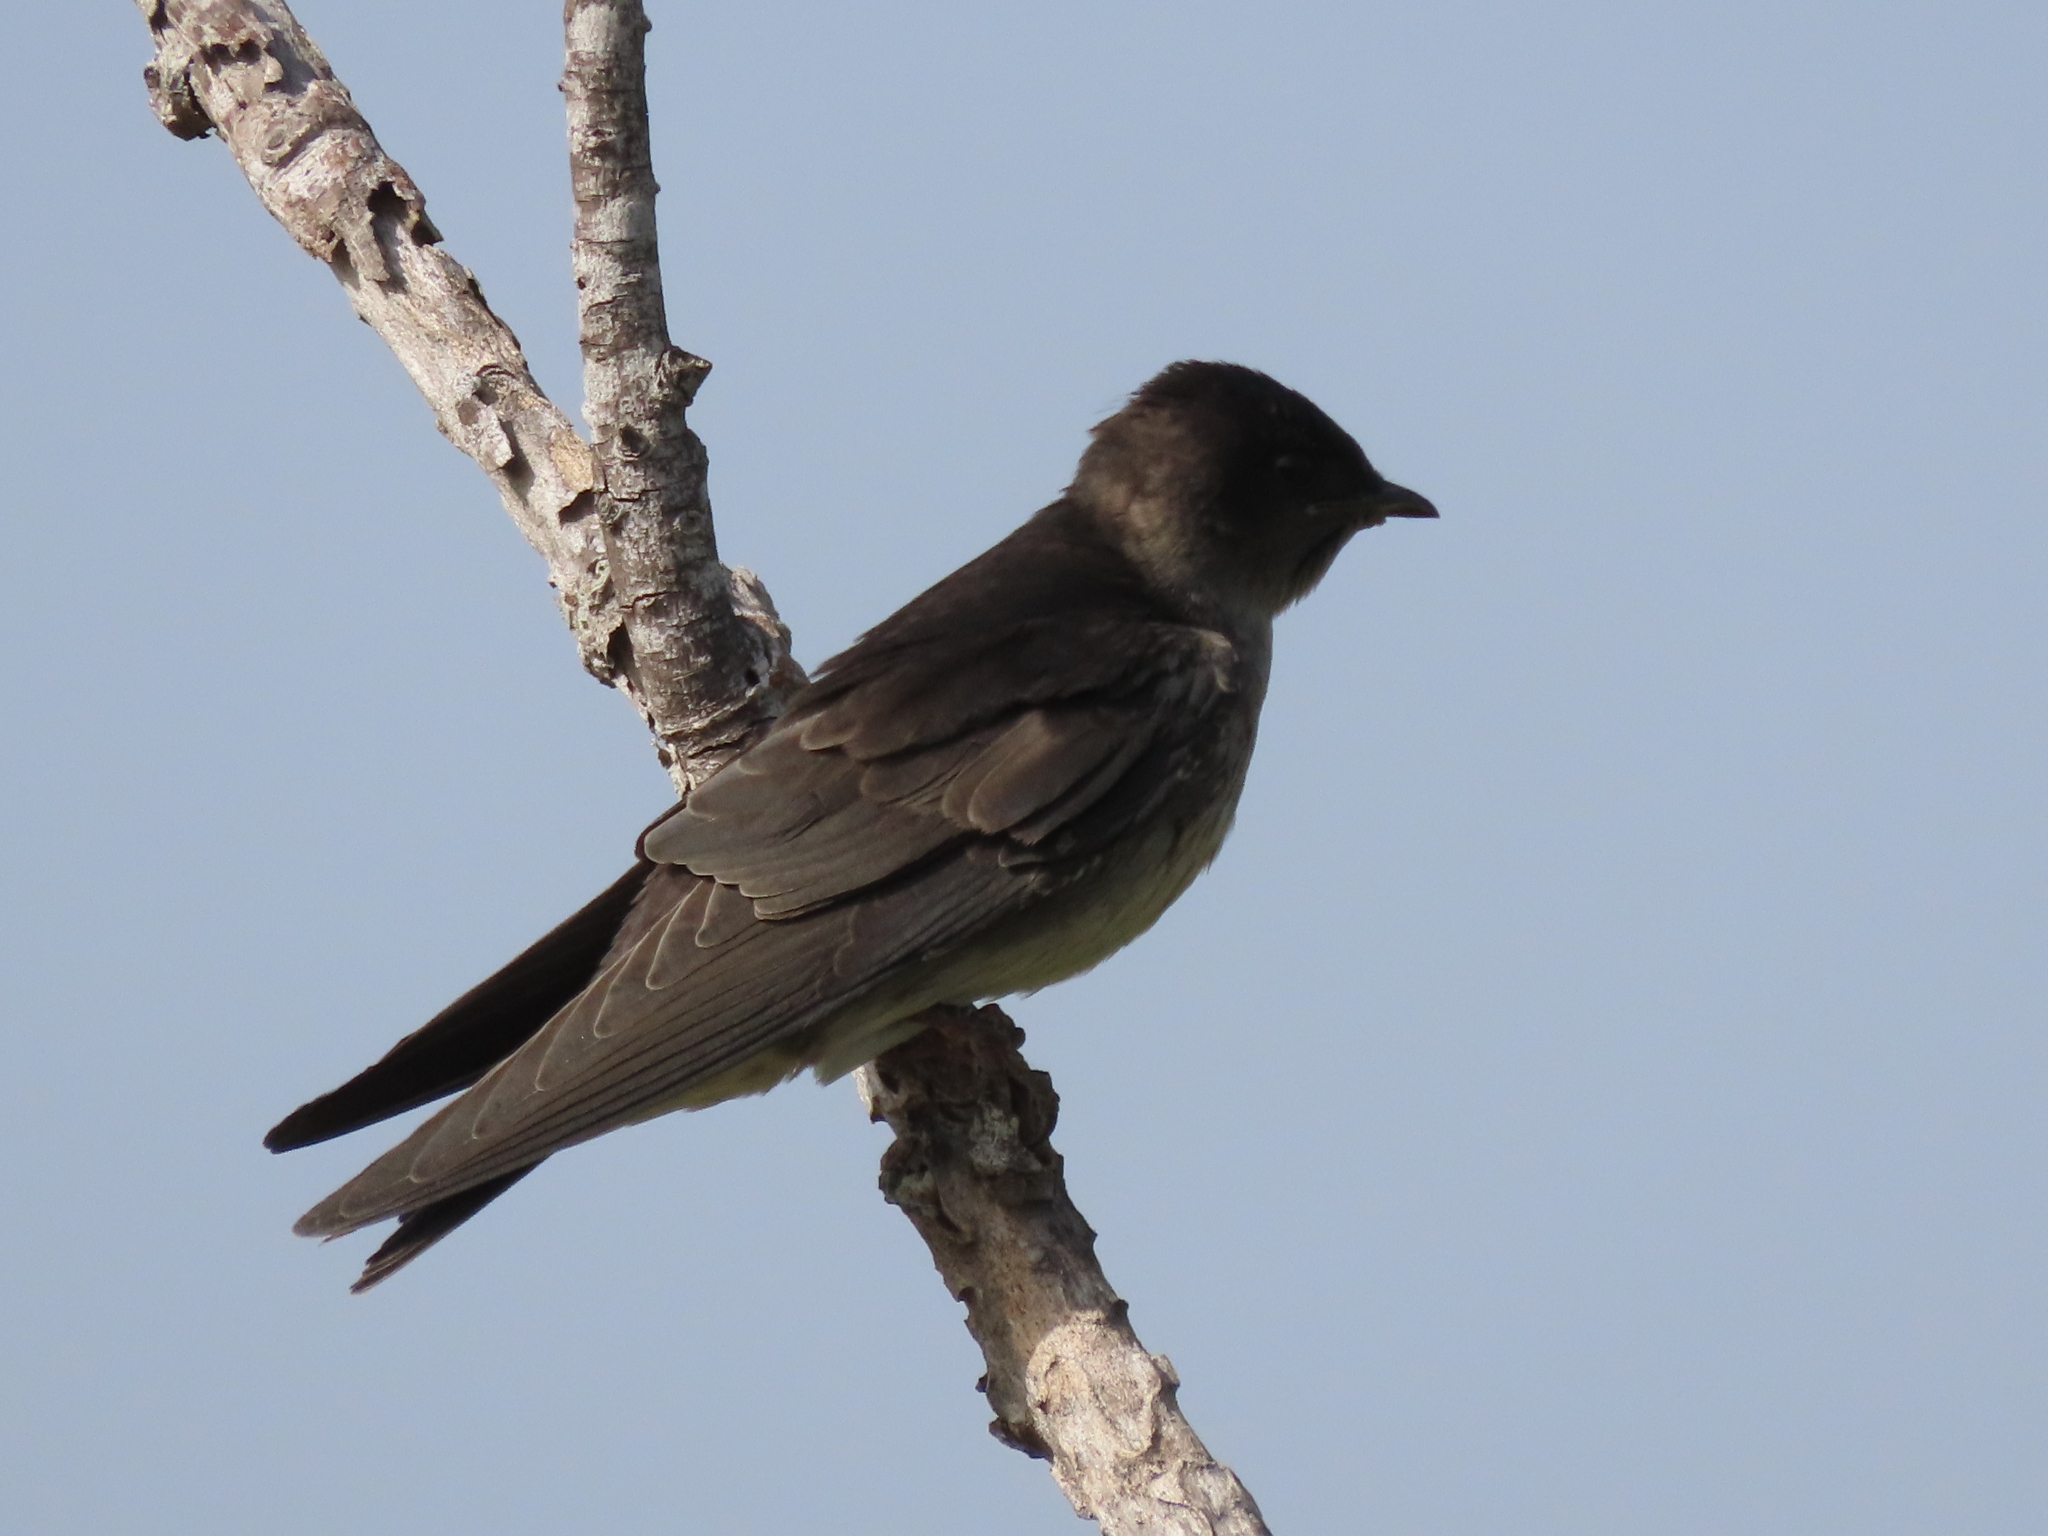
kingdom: Animalia
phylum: Chordata
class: Aves
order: Passeriformes
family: Hirundinidae
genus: Progne
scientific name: Progne subis
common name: Purple martin
